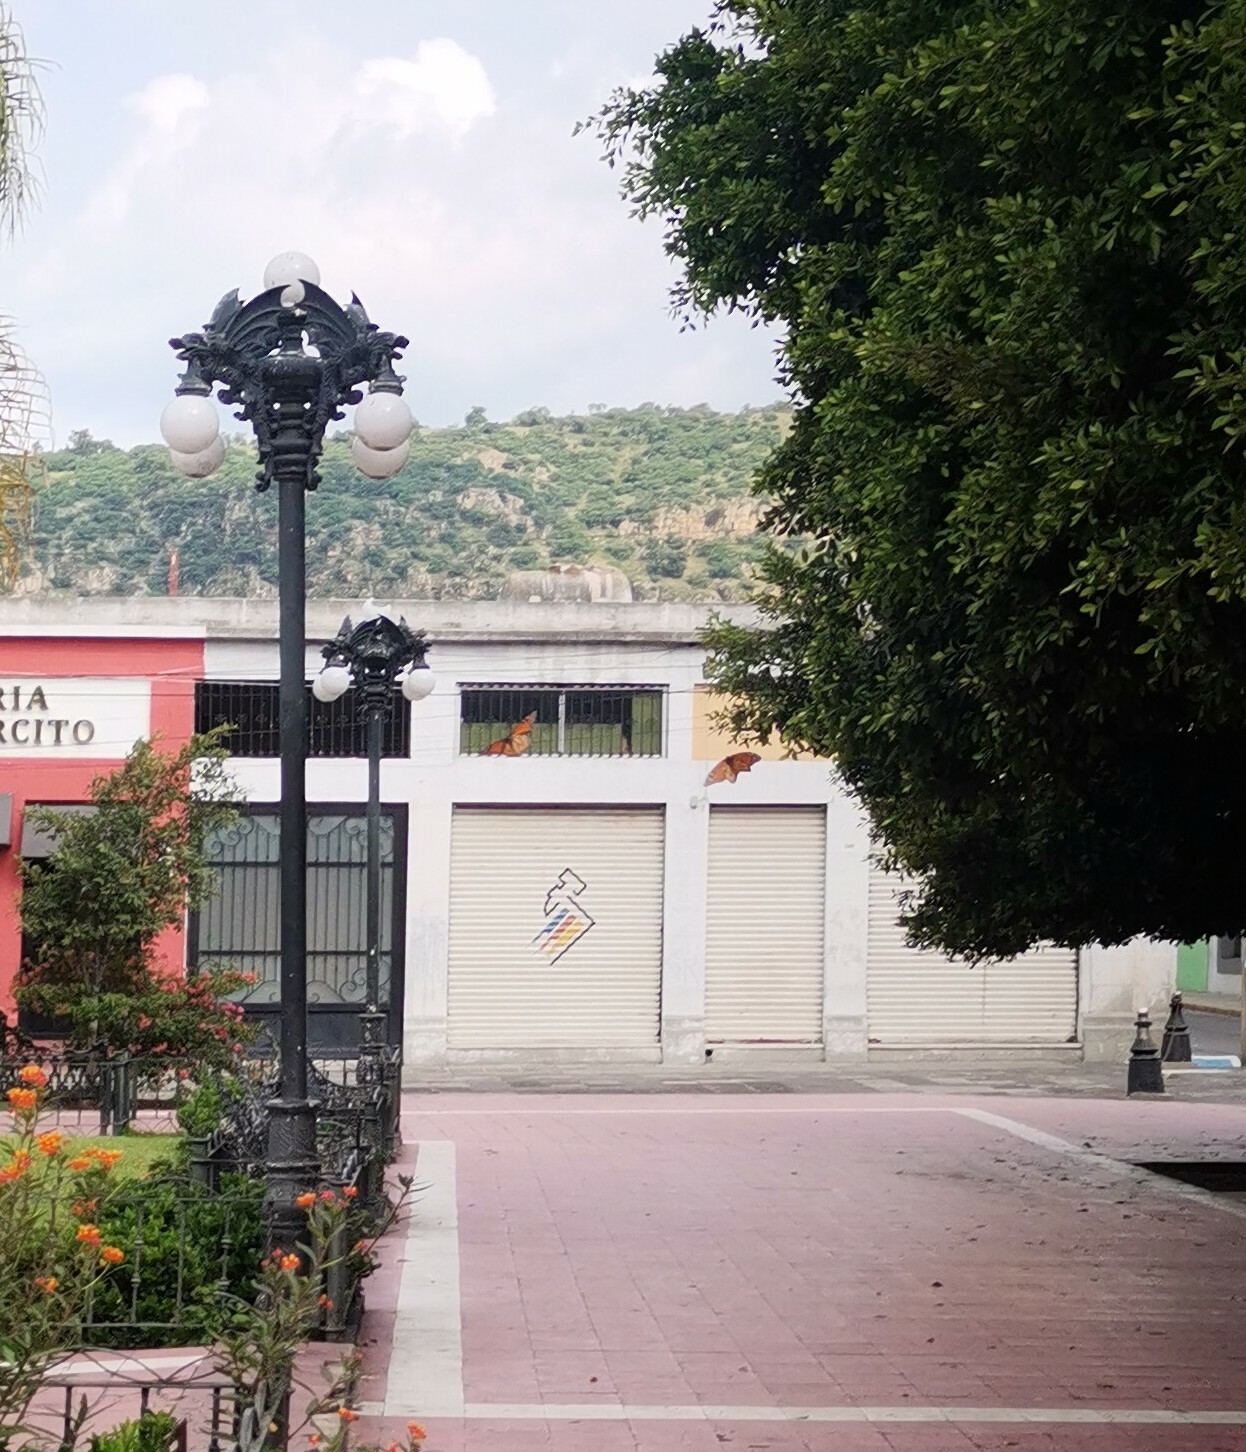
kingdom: Animalia
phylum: Arthropoda
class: Insecta
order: Lepidoptera
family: Nymphalidae
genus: Danaus
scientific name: Danaus plexippus
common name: Monarch
